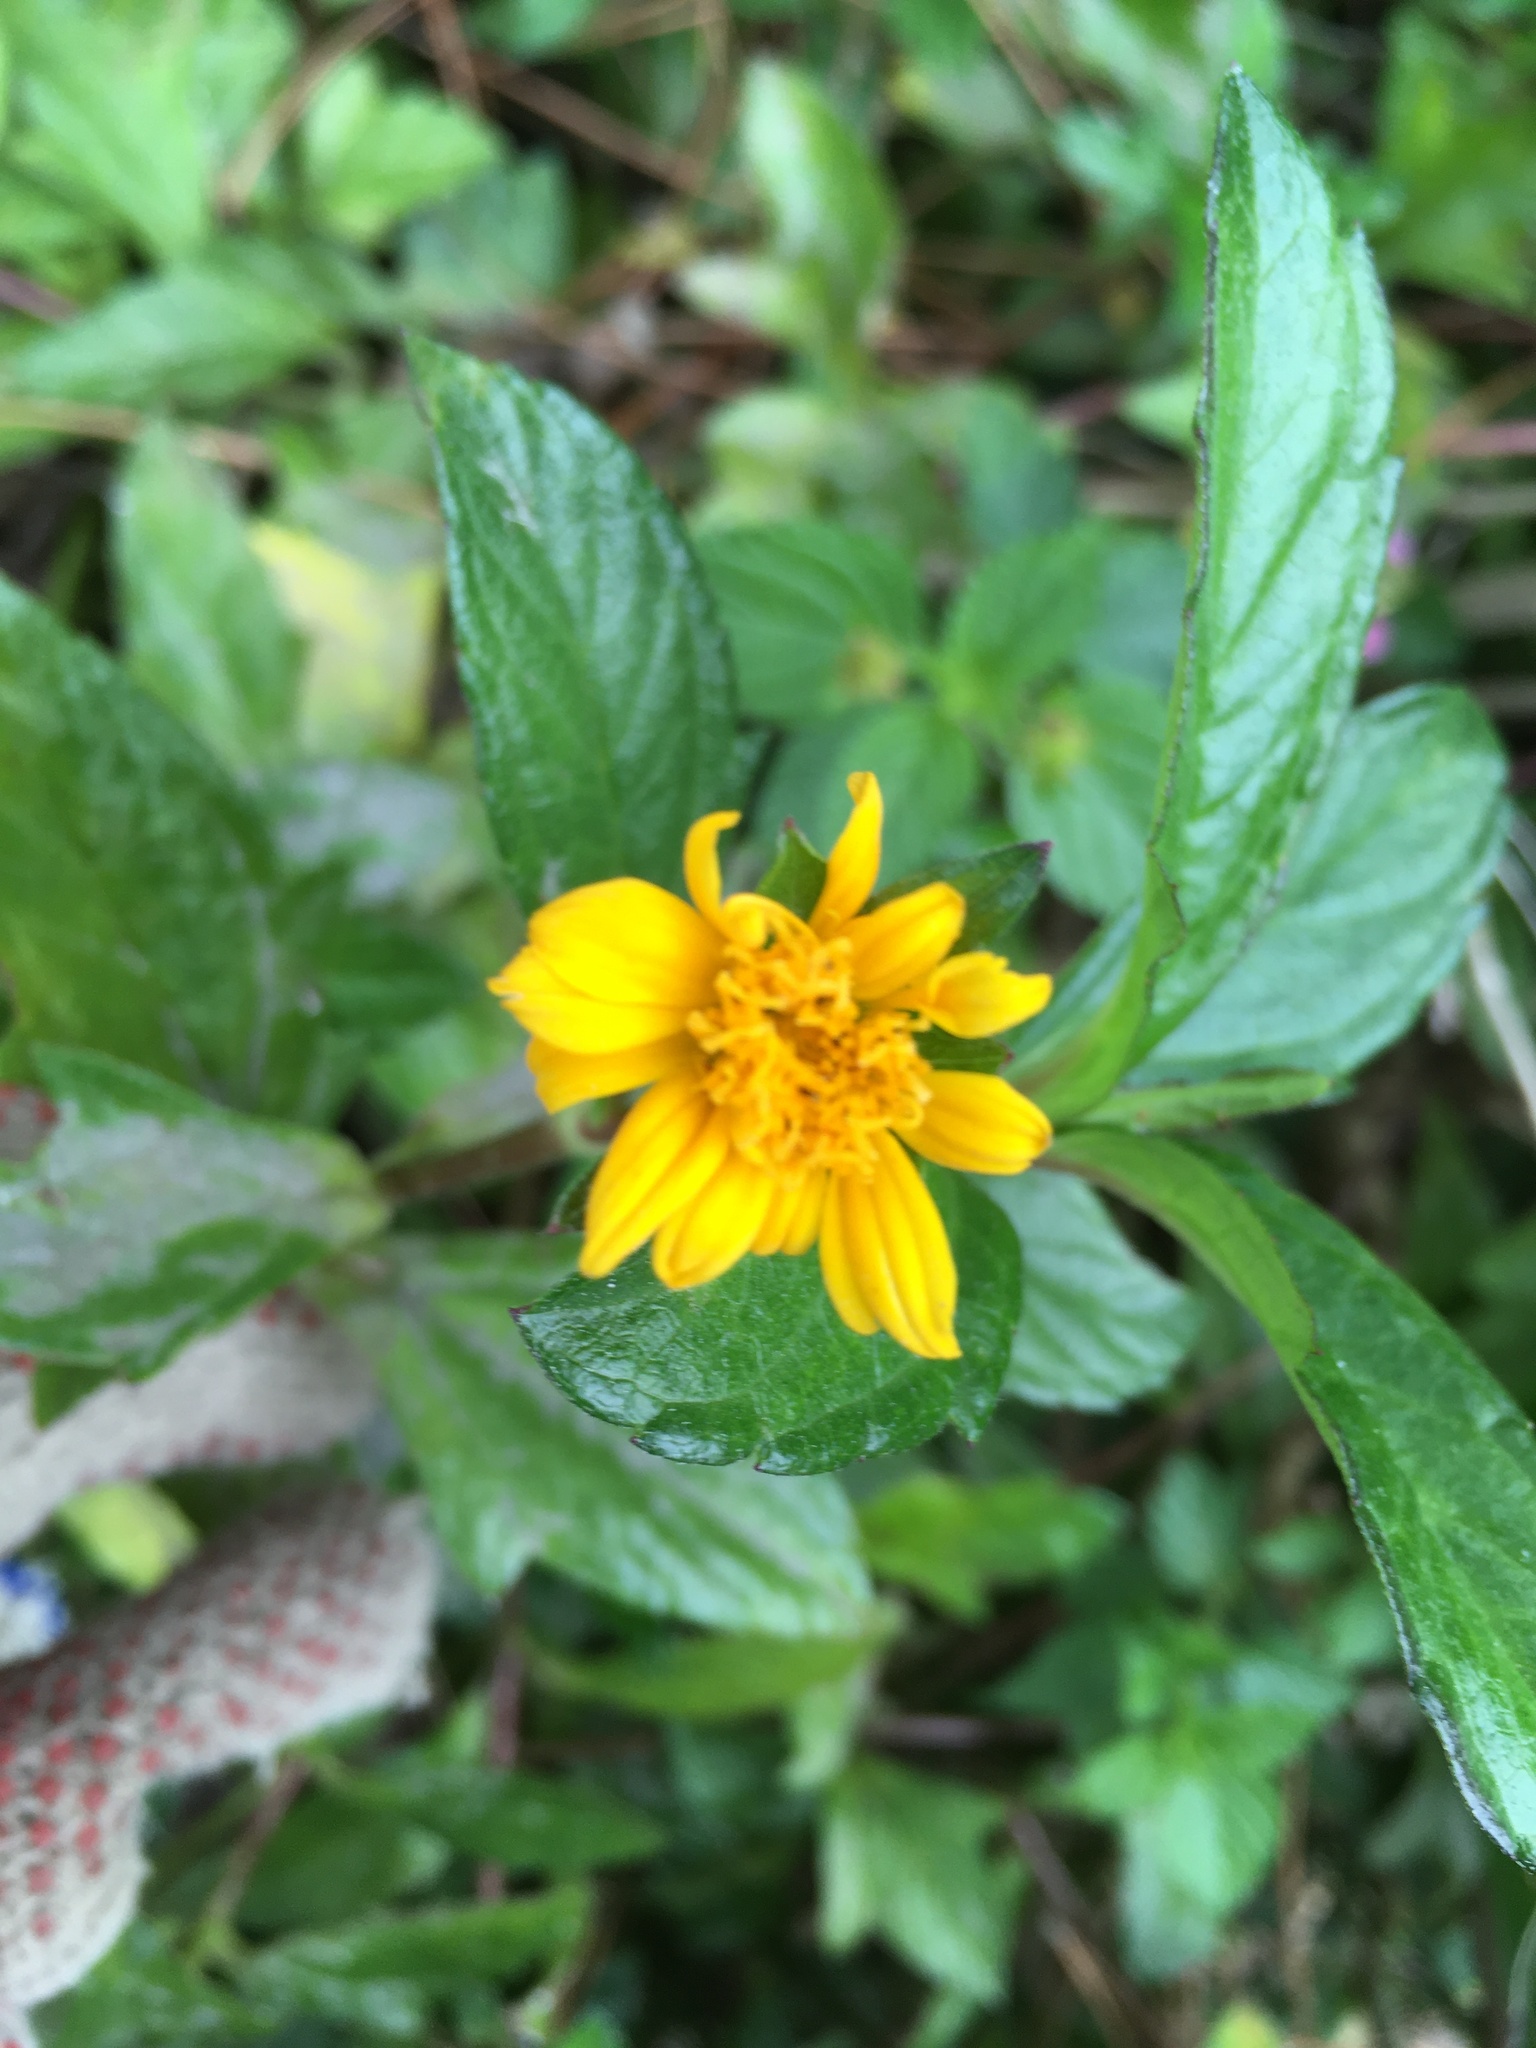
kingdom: Plantae
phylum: Tracheophyta
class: Magnoliopsida
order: Asterales
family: Asteraceae
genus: Sphagneticola
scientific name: Sphagneticola trilobata
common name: Bay biscayne creeping-oxeye
